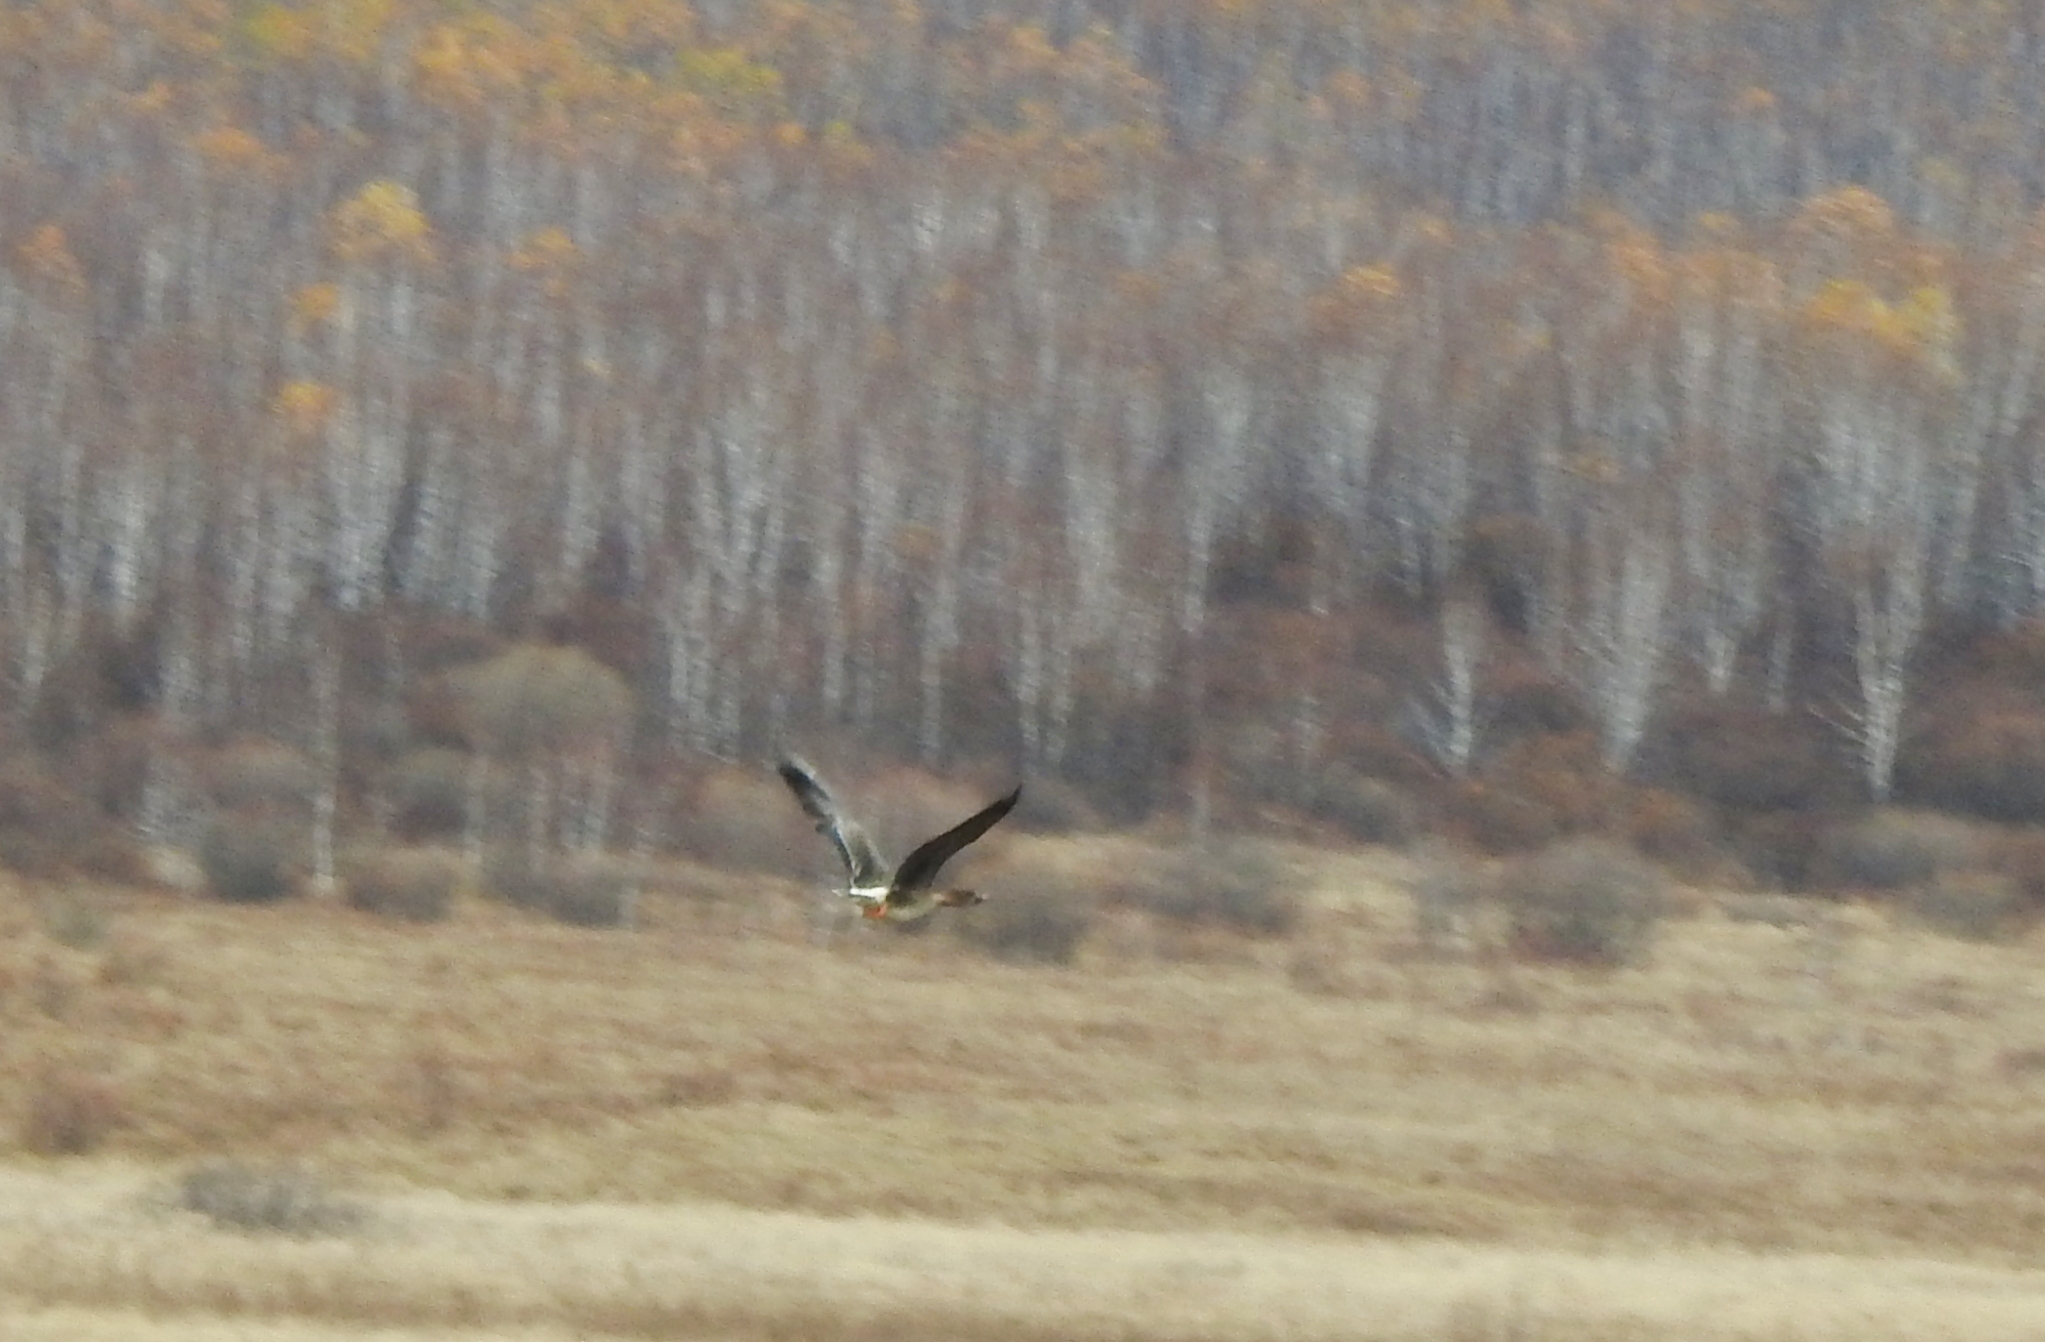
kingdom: Animalia
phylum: Chordata
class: Aves
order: Anseriformes
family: Anatidae
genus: Anser
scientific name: Anser fabalis
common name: Bean goose
